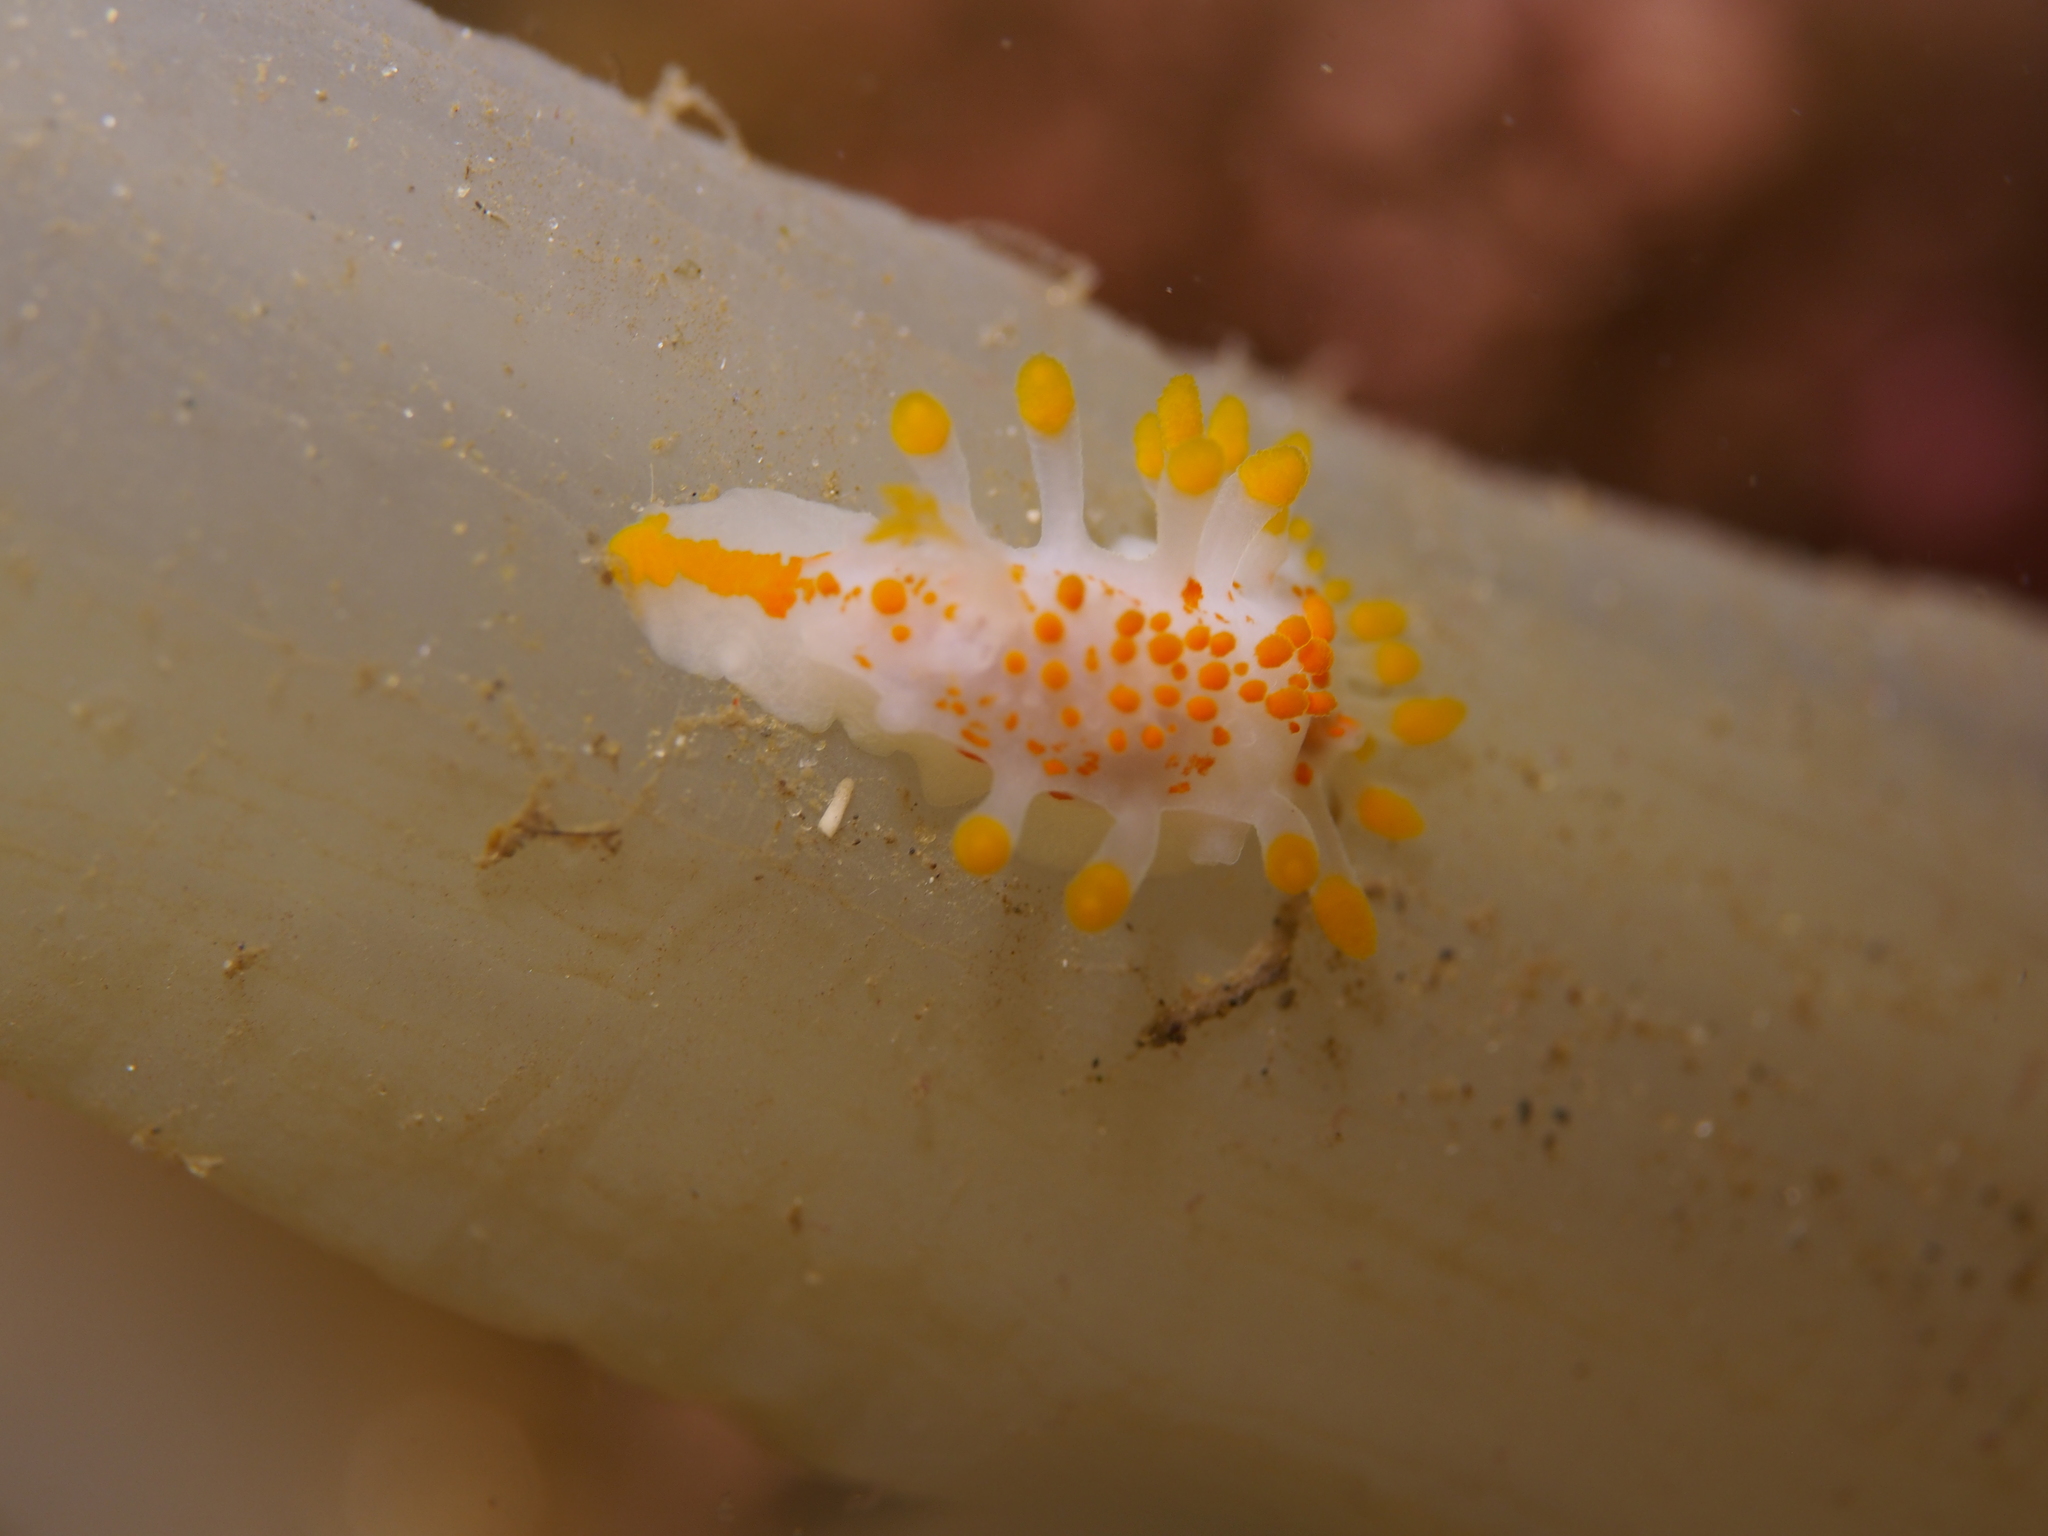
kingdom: Animalia
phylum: Mollusca
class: Gastropoda
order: Nudibranchia
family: Polyceridae
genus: Limacia
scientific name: Limacia clavigera
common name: Orange-clubbed sea slug
